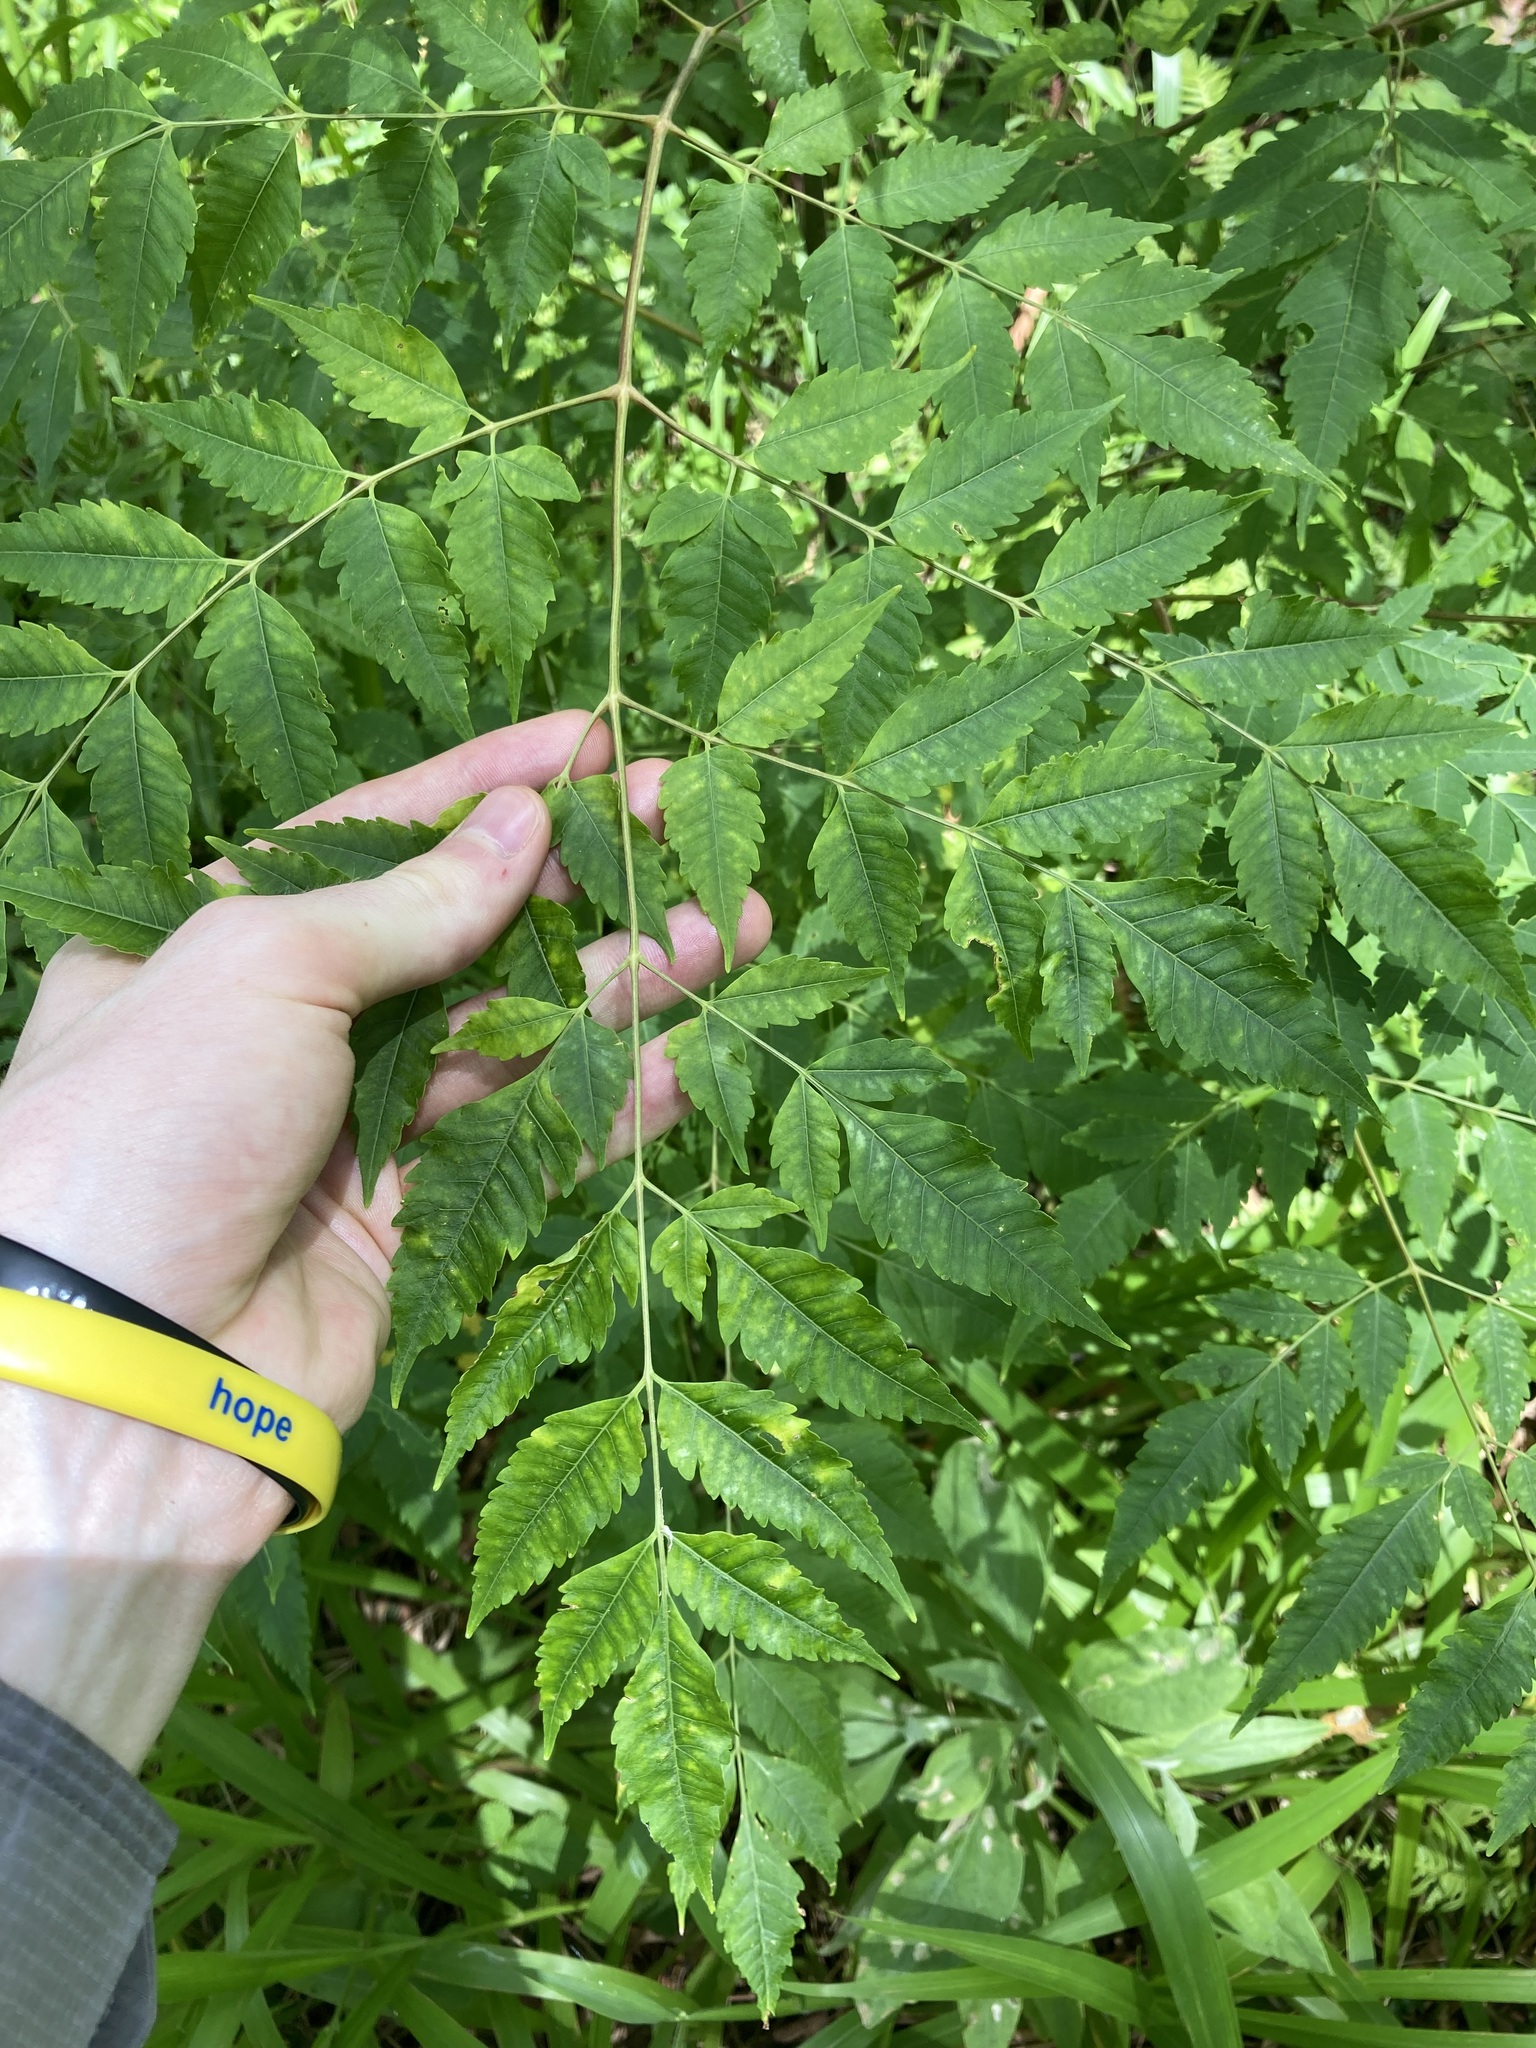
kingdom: Plantae
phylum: Tracheophyta
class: Magnoliopsida
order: Sapindales
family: Meliaceae
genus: Melia
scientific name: Melia azedarach
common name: Chinaberrytree
